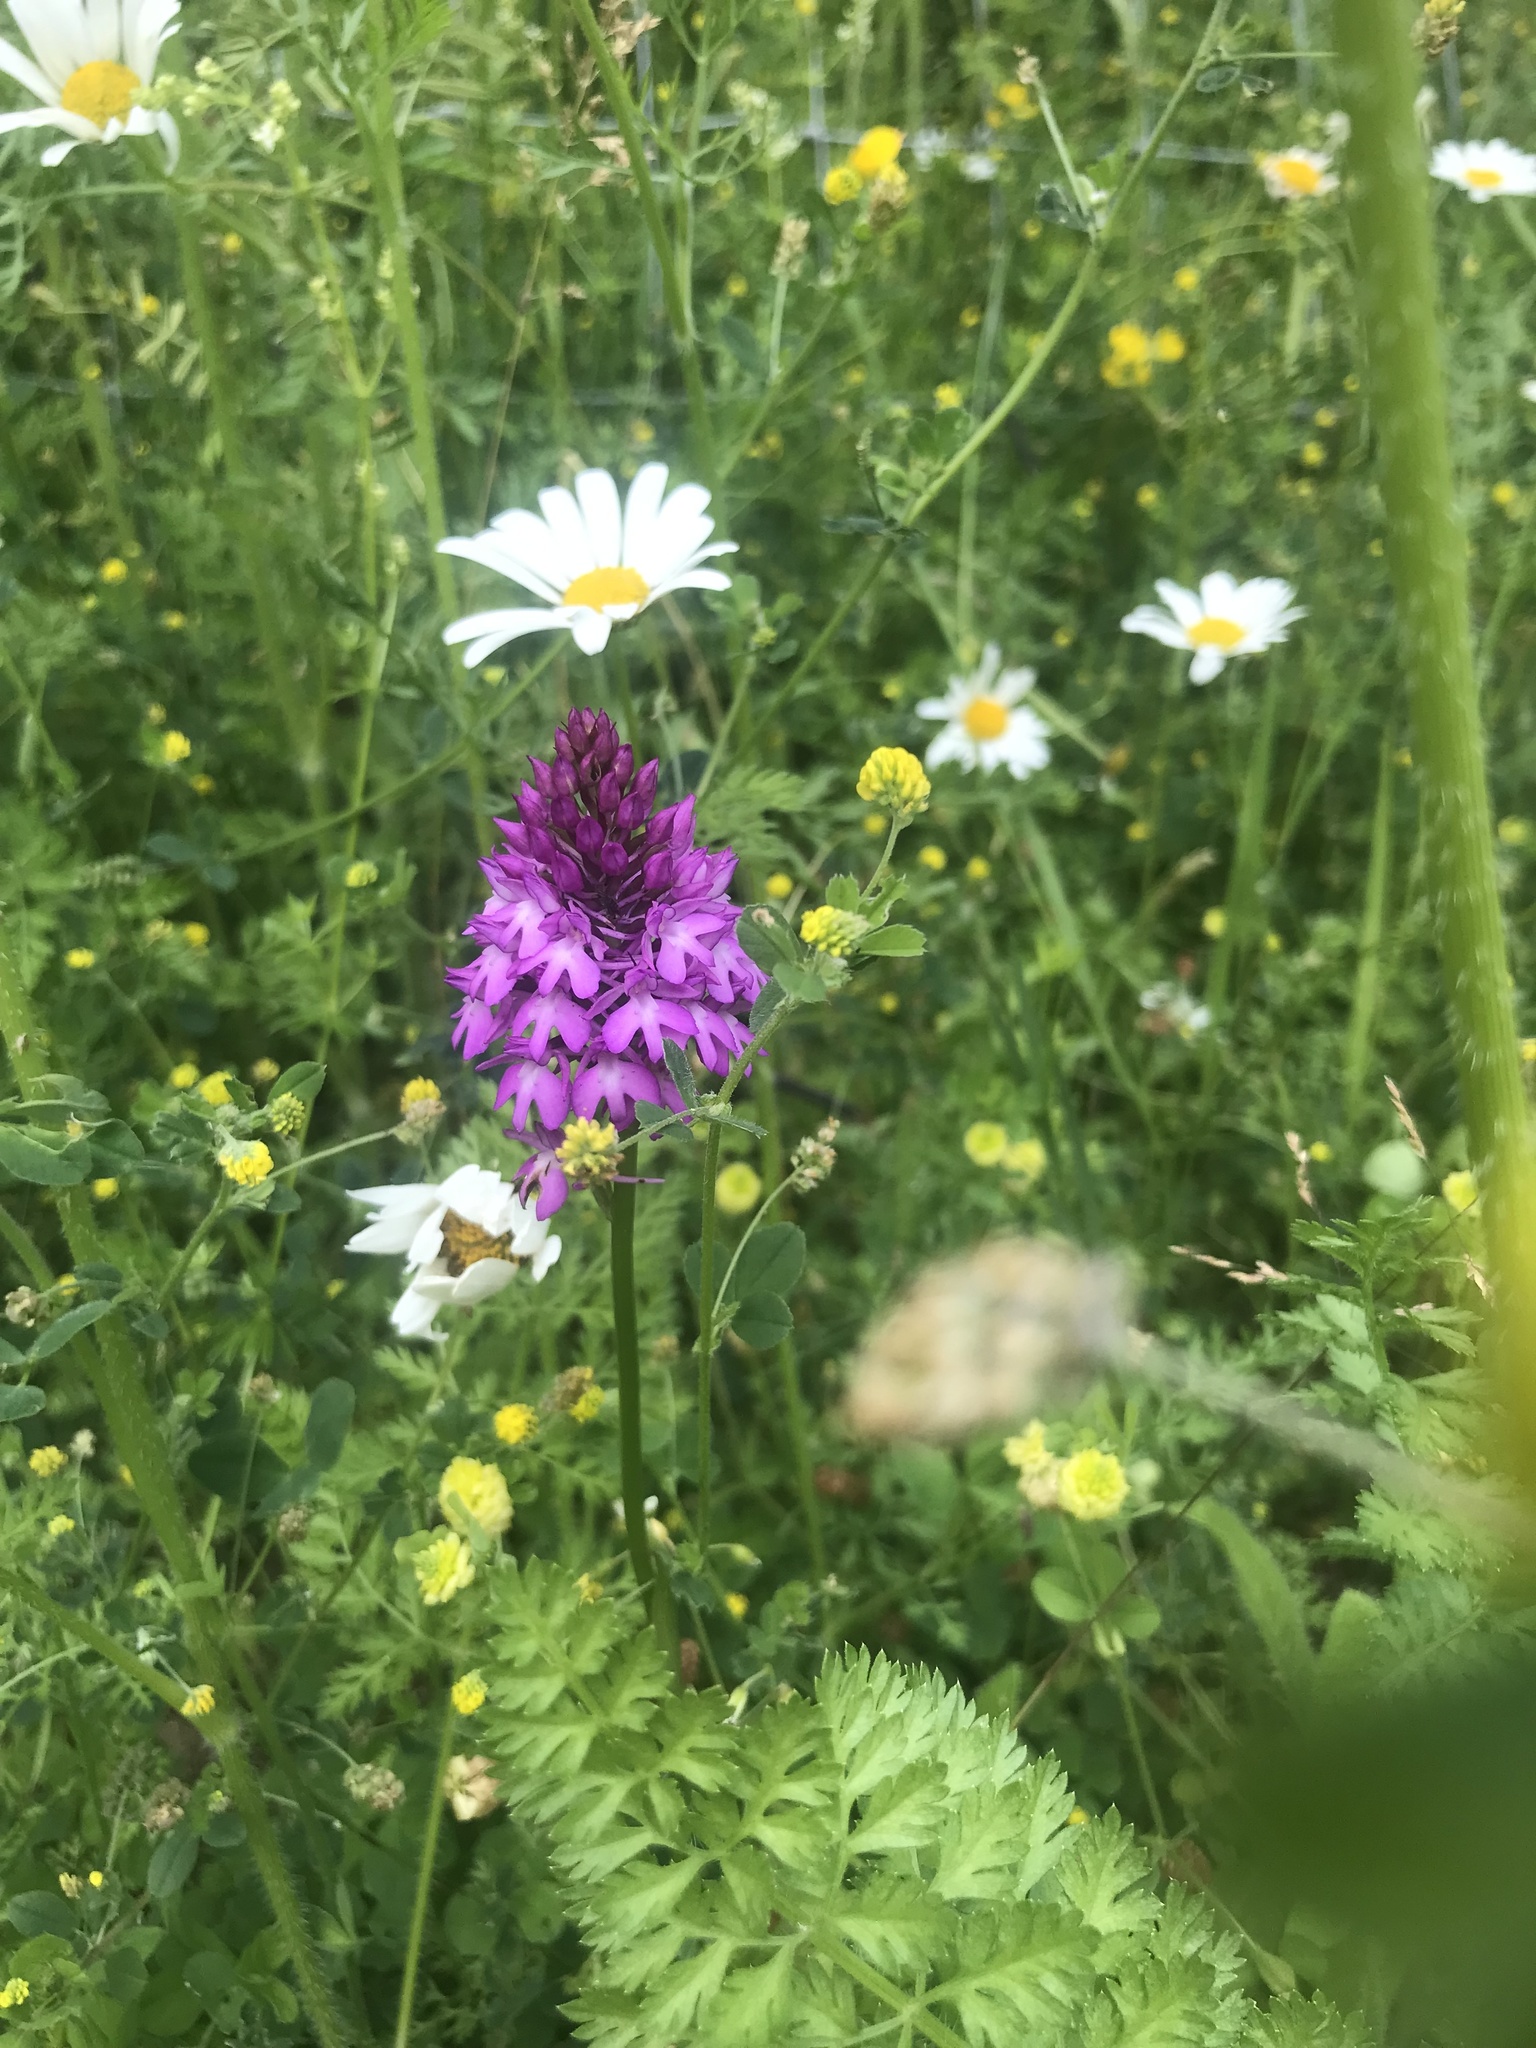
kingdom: Plantae
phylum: Tracheophyta
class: Liliopsida
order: Asparagales
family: Orchidaceae
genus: Anacamptis
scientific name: Anacamptis pyramidalis
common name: Pyramidal orchid
